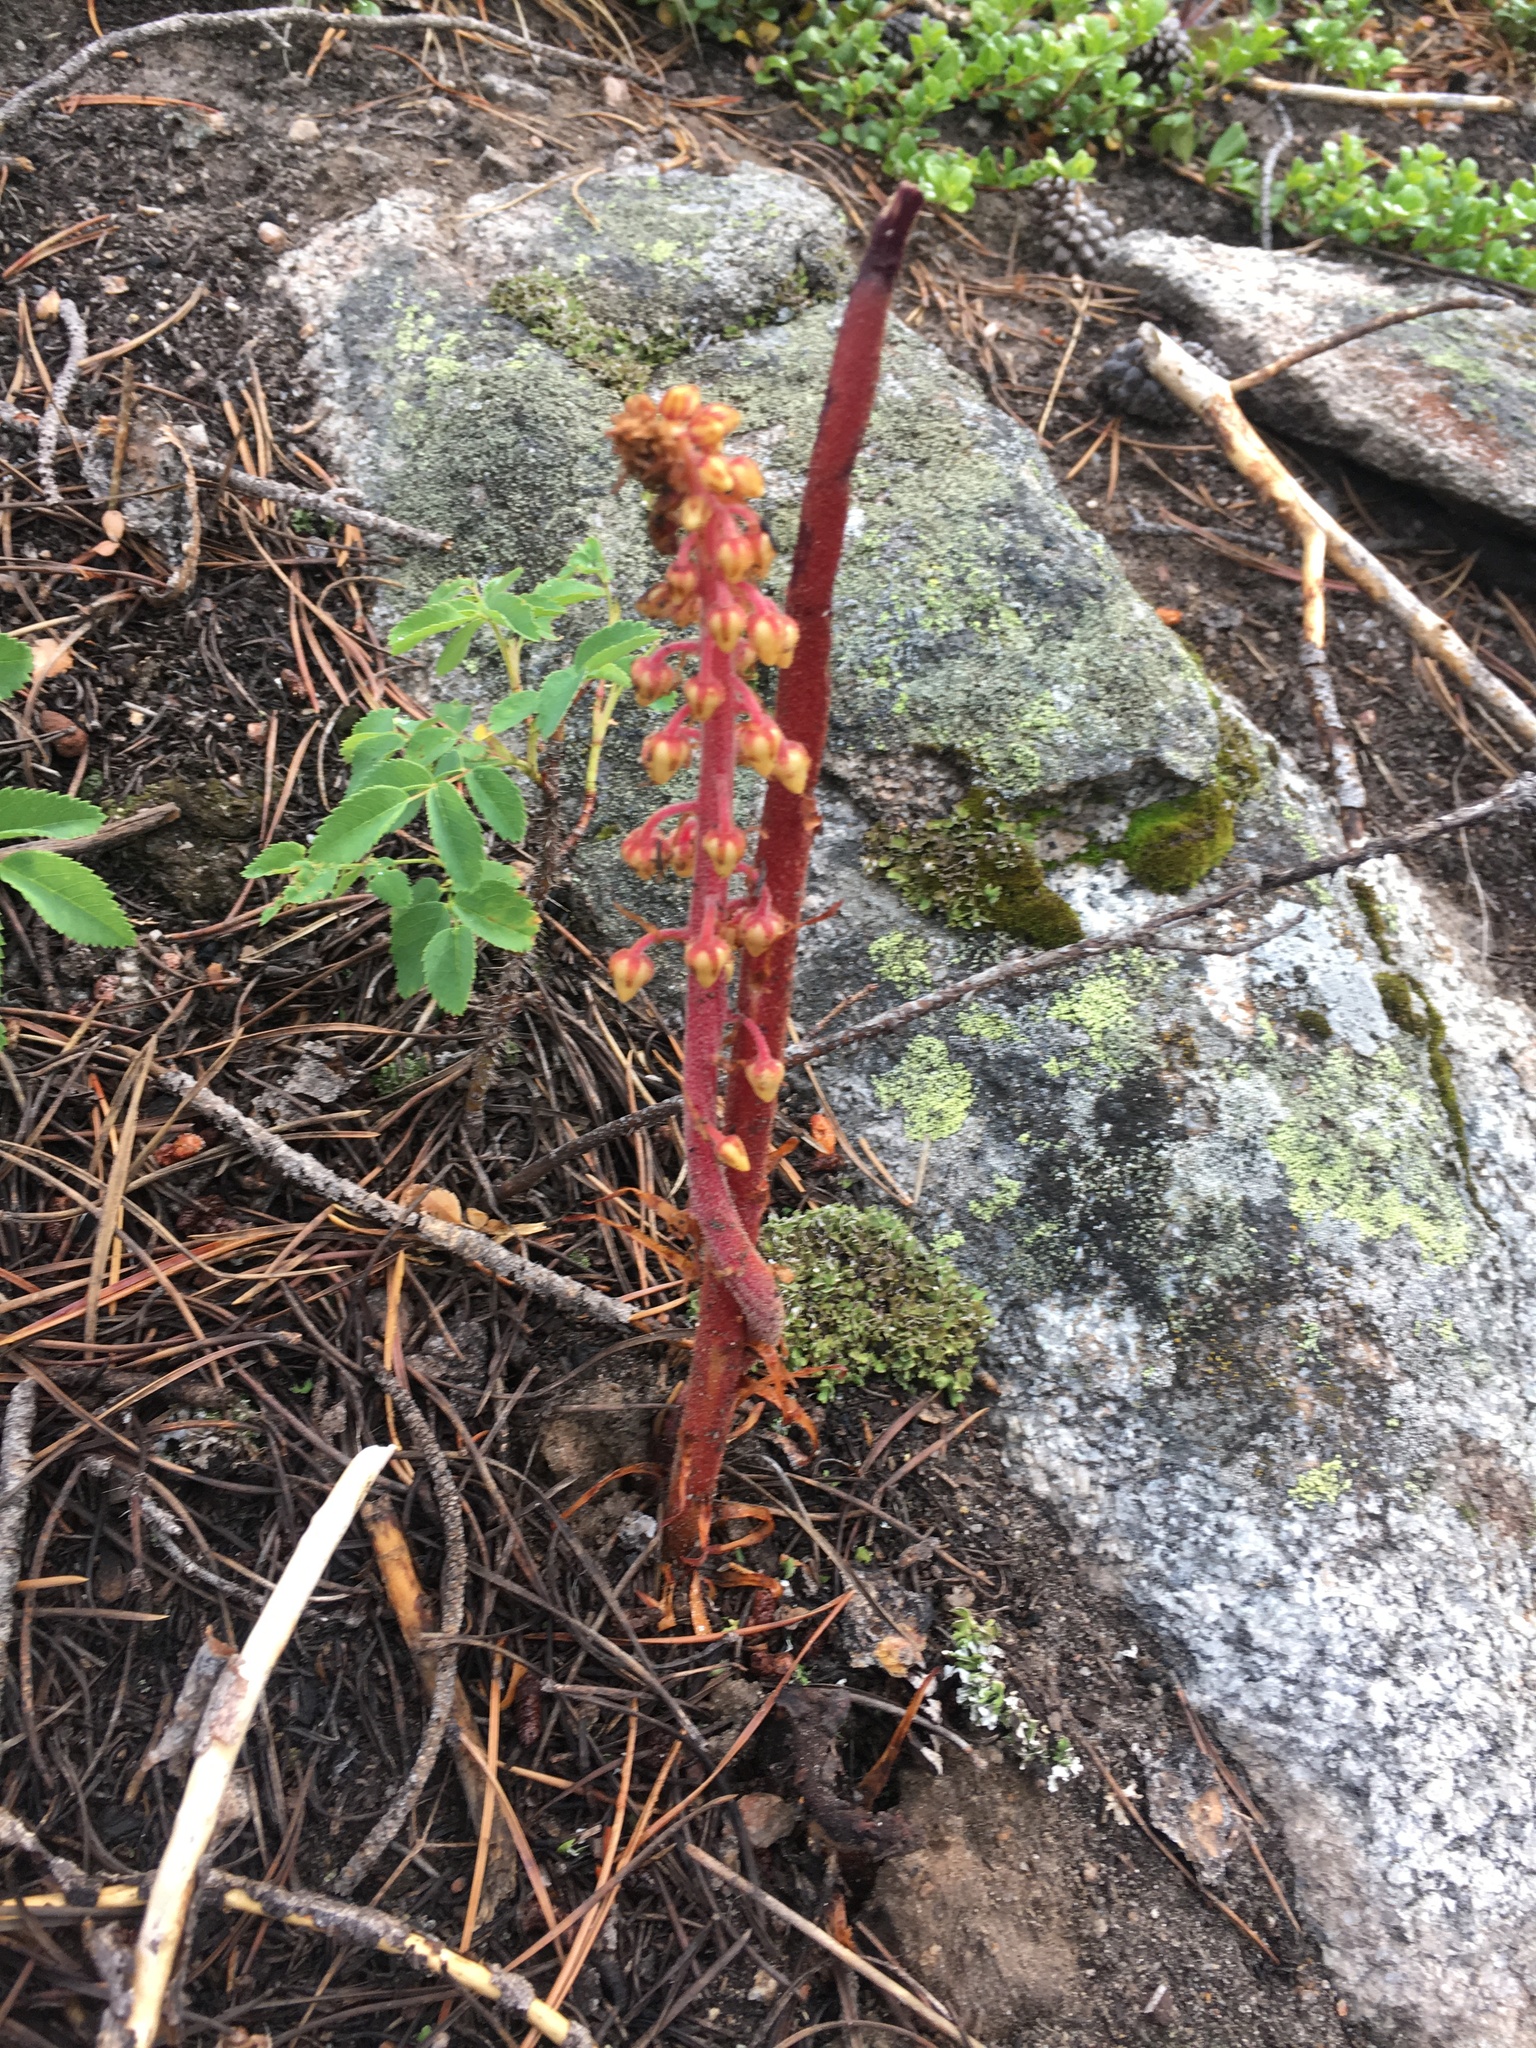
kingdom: Plantae
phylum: Tracheophyta
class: Magnoliopsida
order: Ericales
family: Ericaceae
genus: Pterospora
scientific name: Pterospora andromedea
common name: Giant bird's-nest
